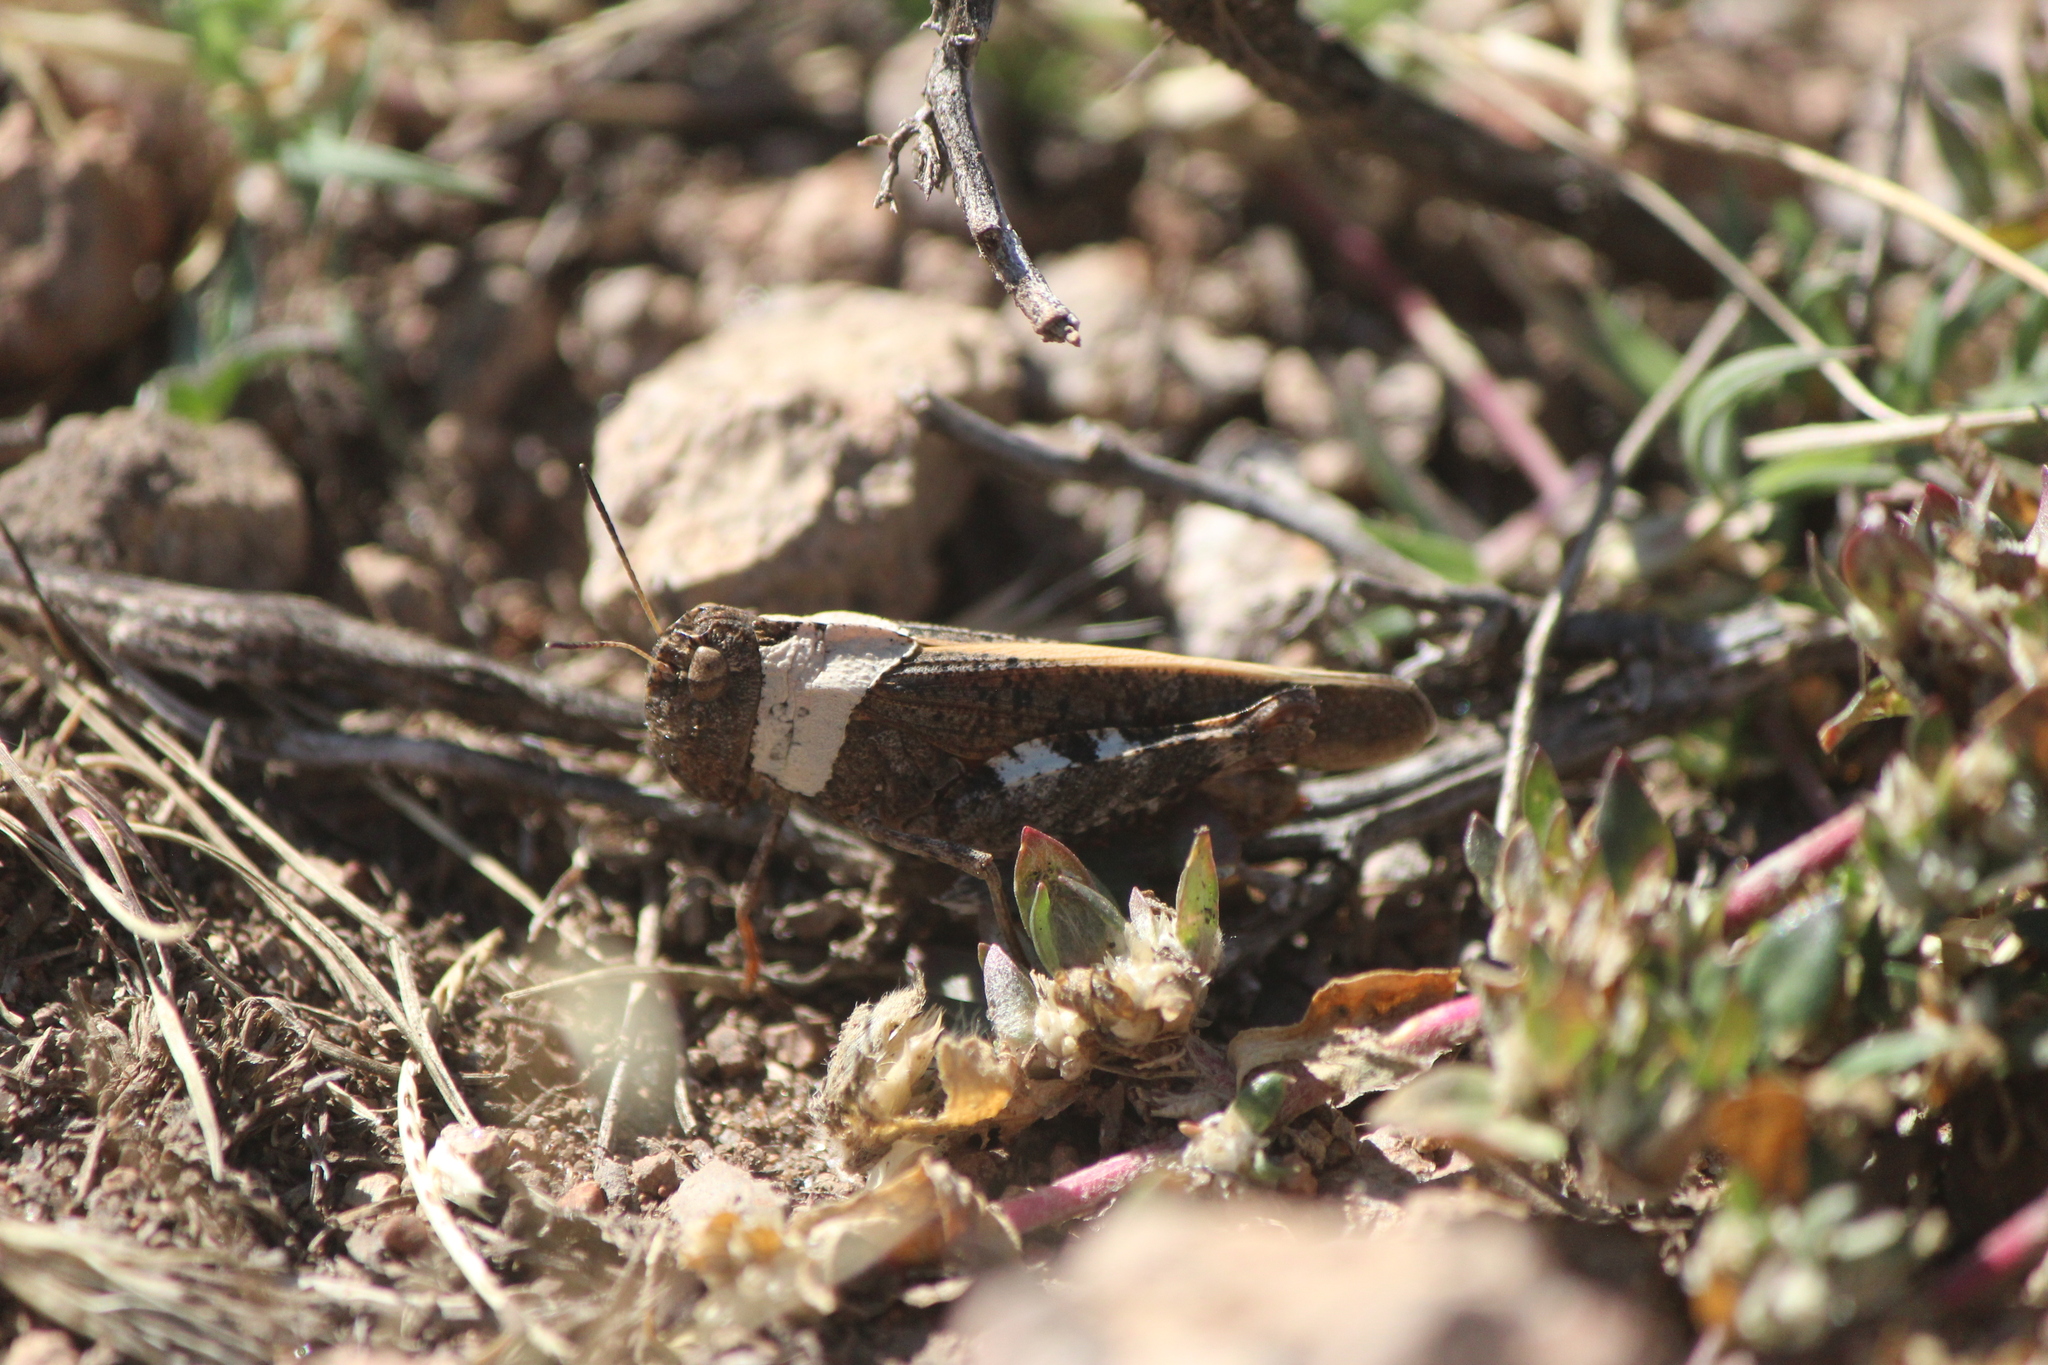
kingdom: Animalia
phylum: Arthropoda
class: Insecta
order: Orthoptera
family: Acrididae
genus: Arphia
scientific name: Arphia nietana
